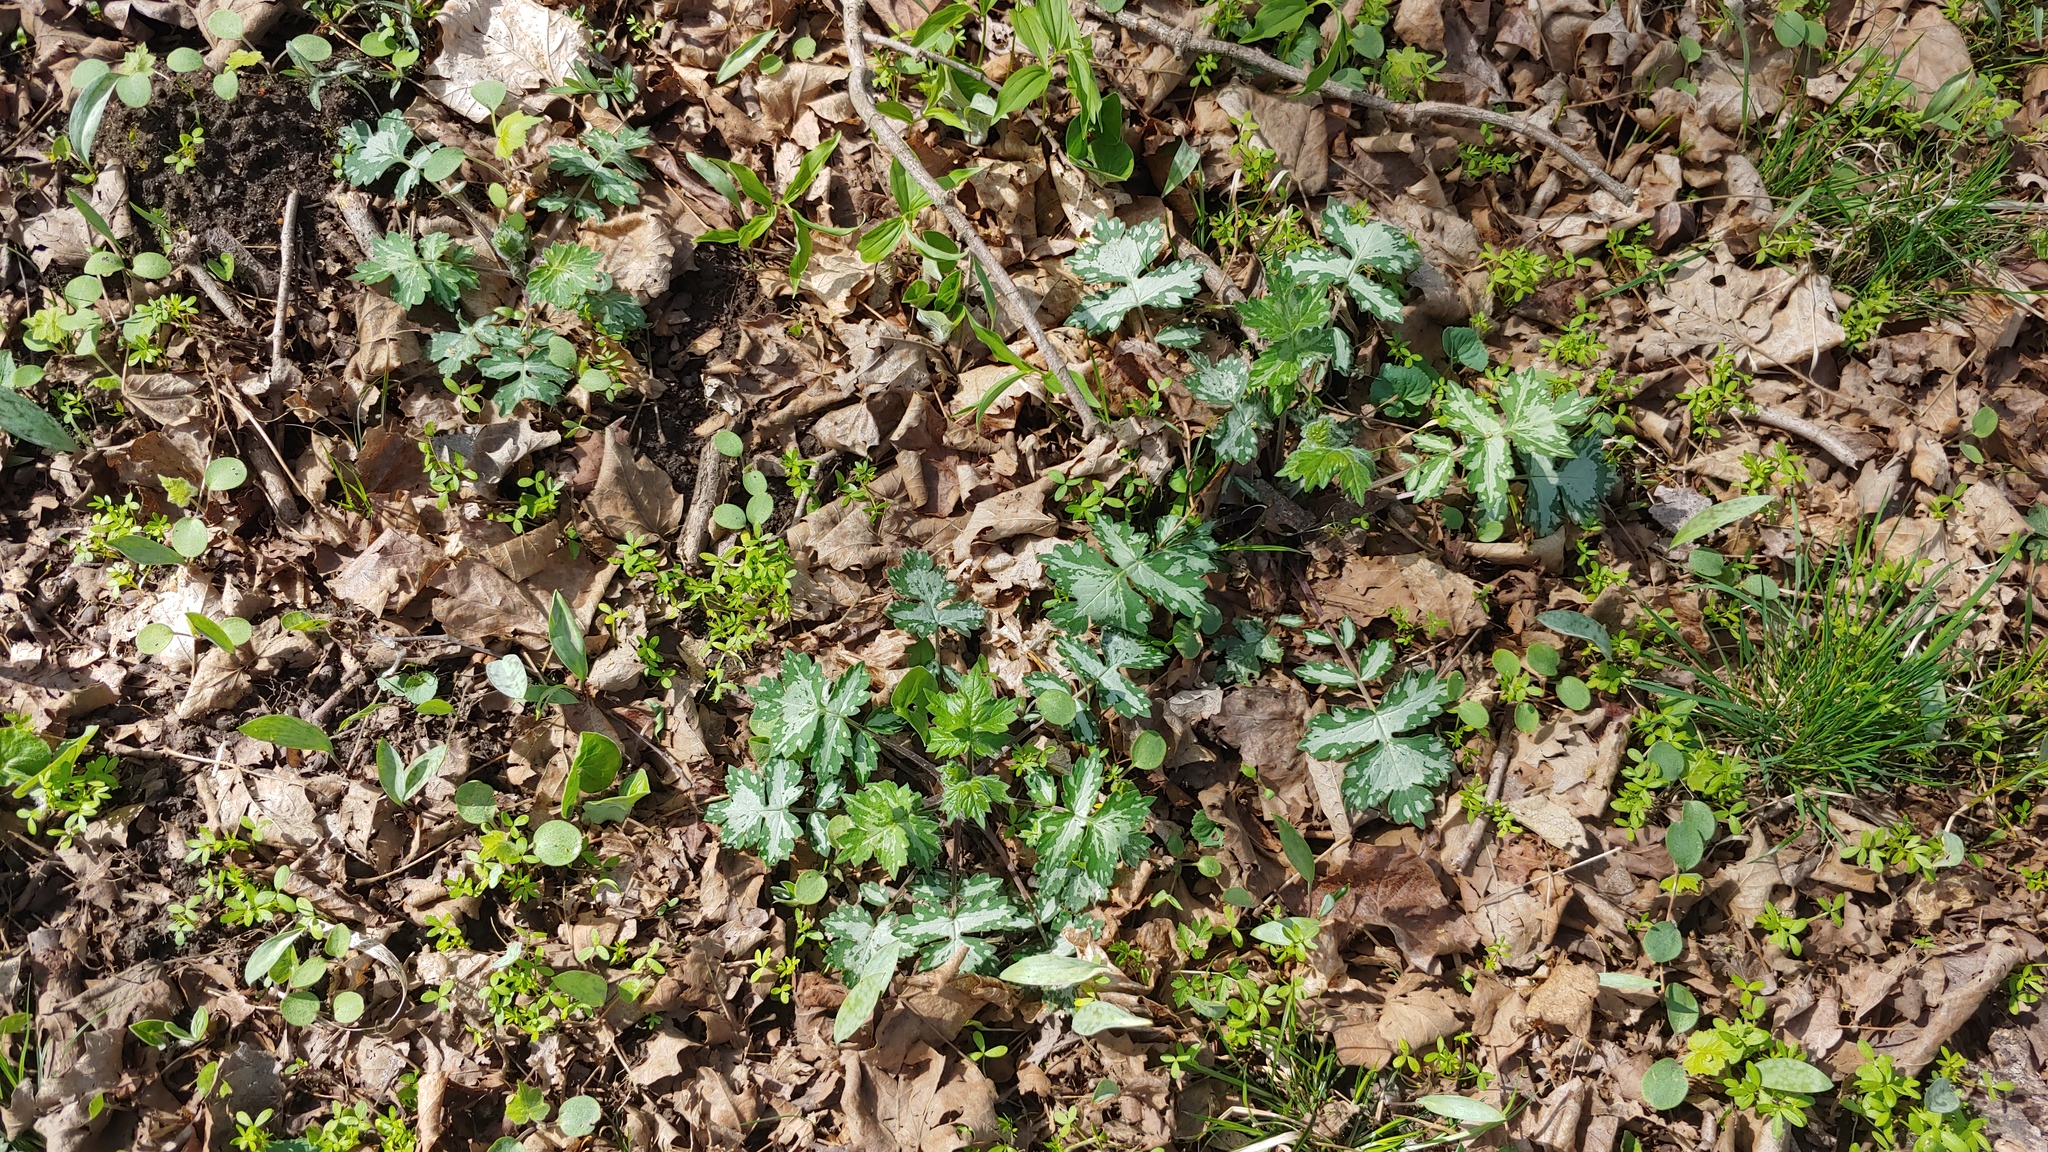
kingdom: Plantae
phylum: Tracheophyta
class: Magnoliopsida
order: Boraginales
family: Hydrophyllaceae
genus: Hydrophyllum
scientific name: Hydrophyllum appendiculatum
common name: Appendaged waterleaf
